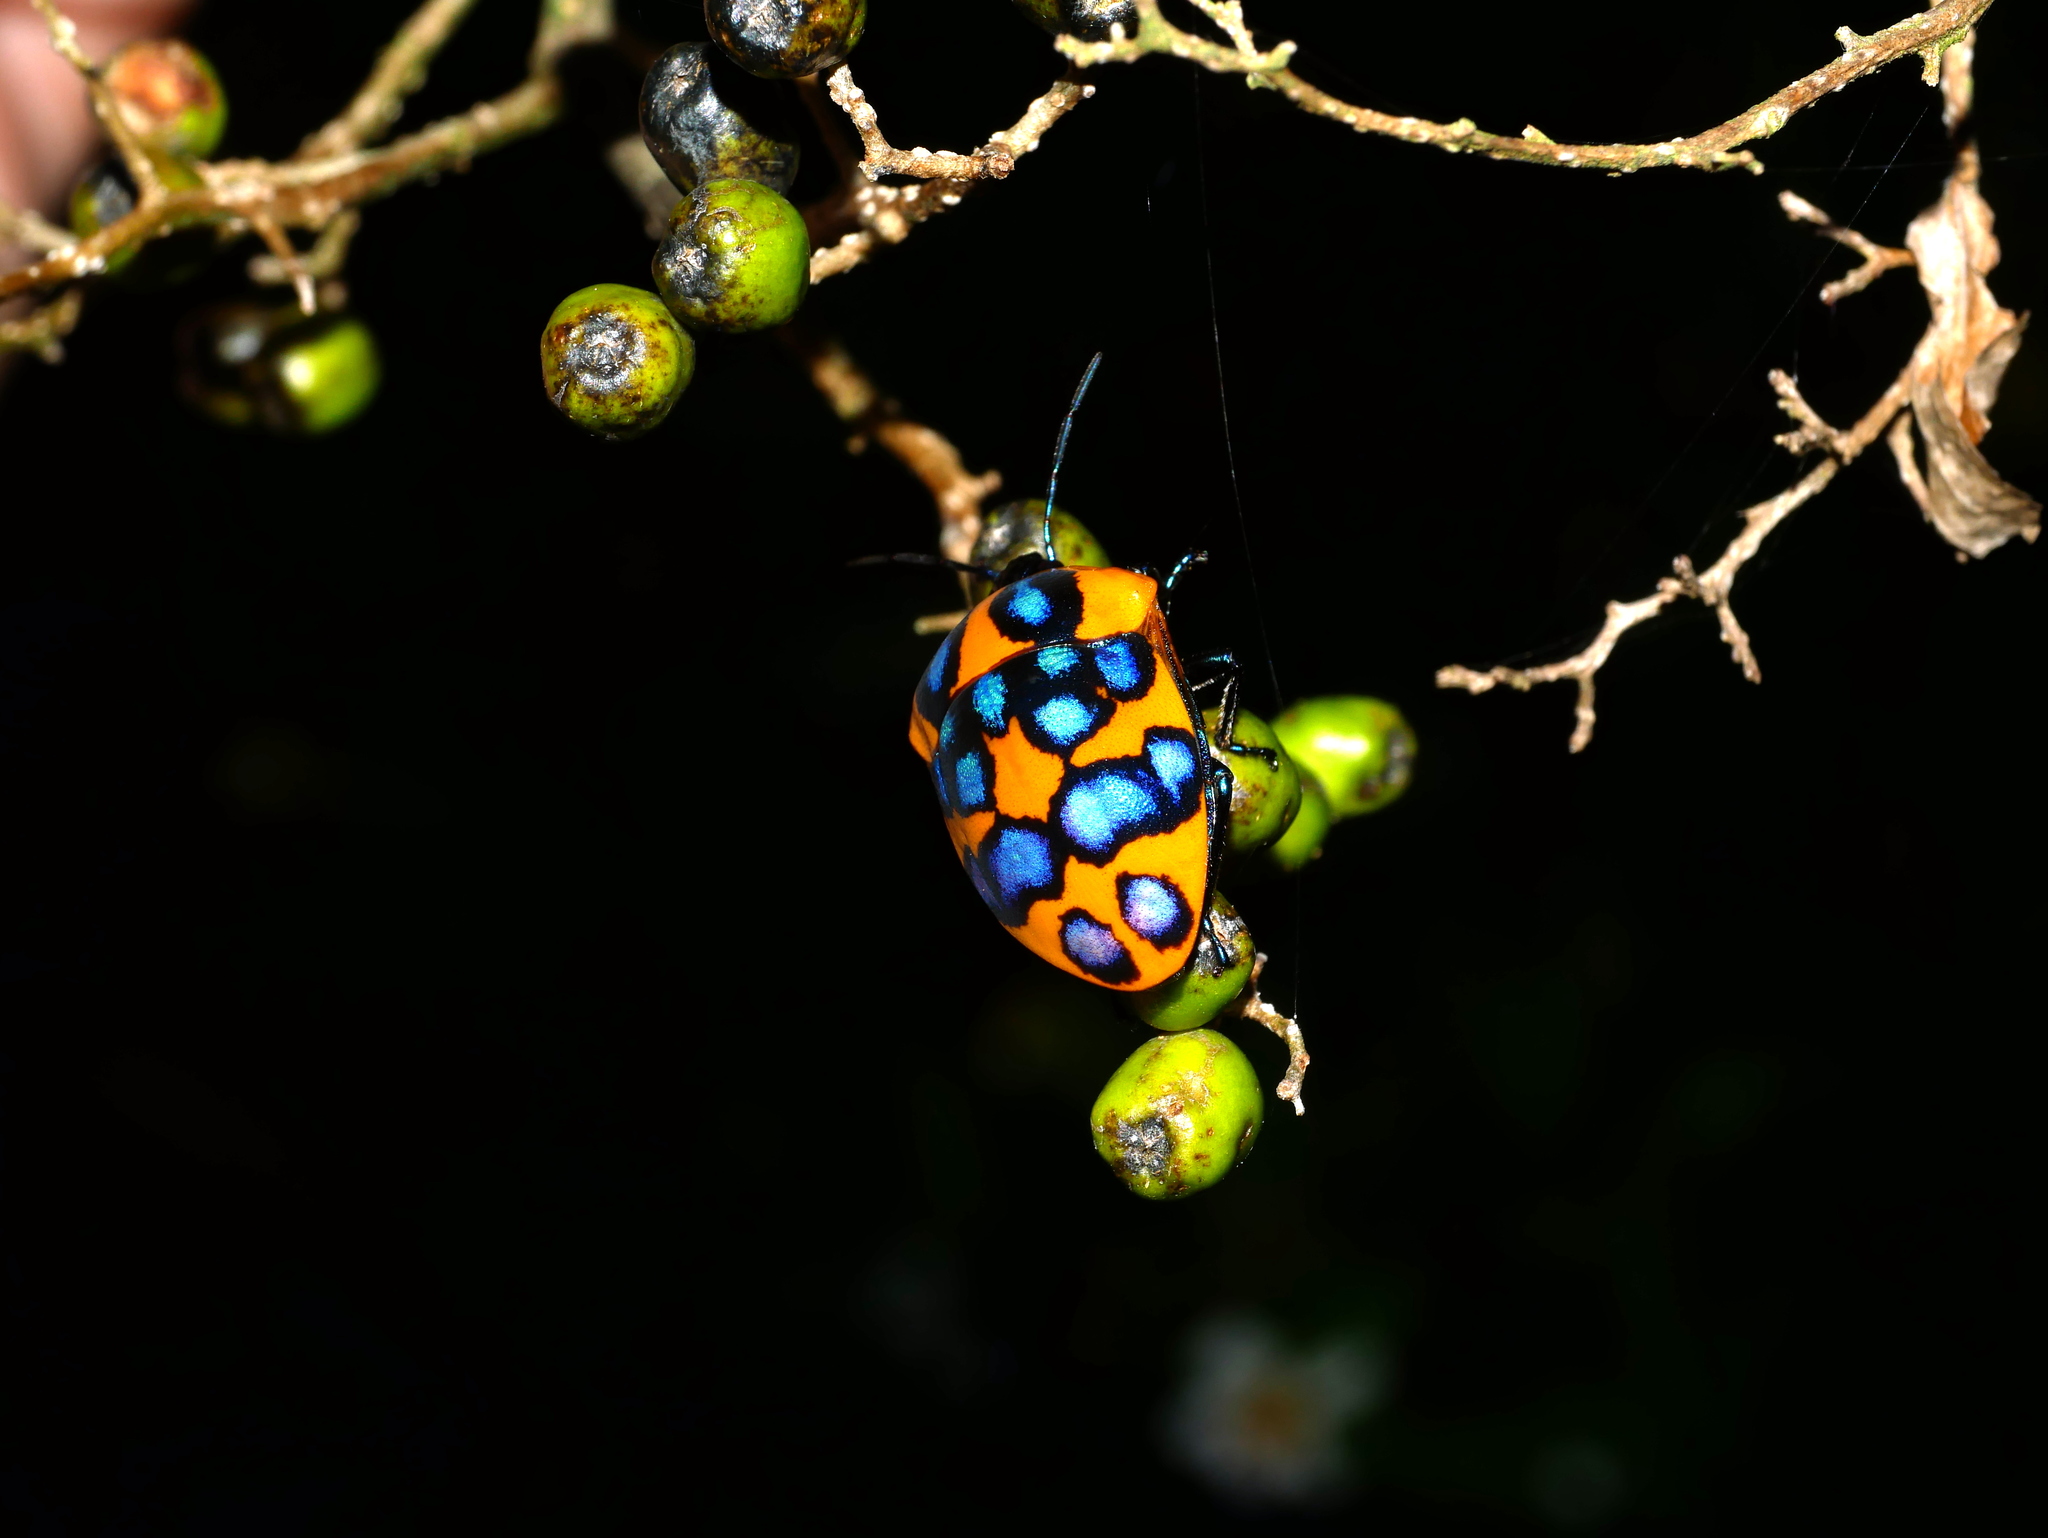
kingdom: Animalia
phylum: Arthropoda
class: Insecta
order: Hemiptera
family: Scutelleridae
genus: Poecilocoris
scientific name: Poecilocoris druraei
